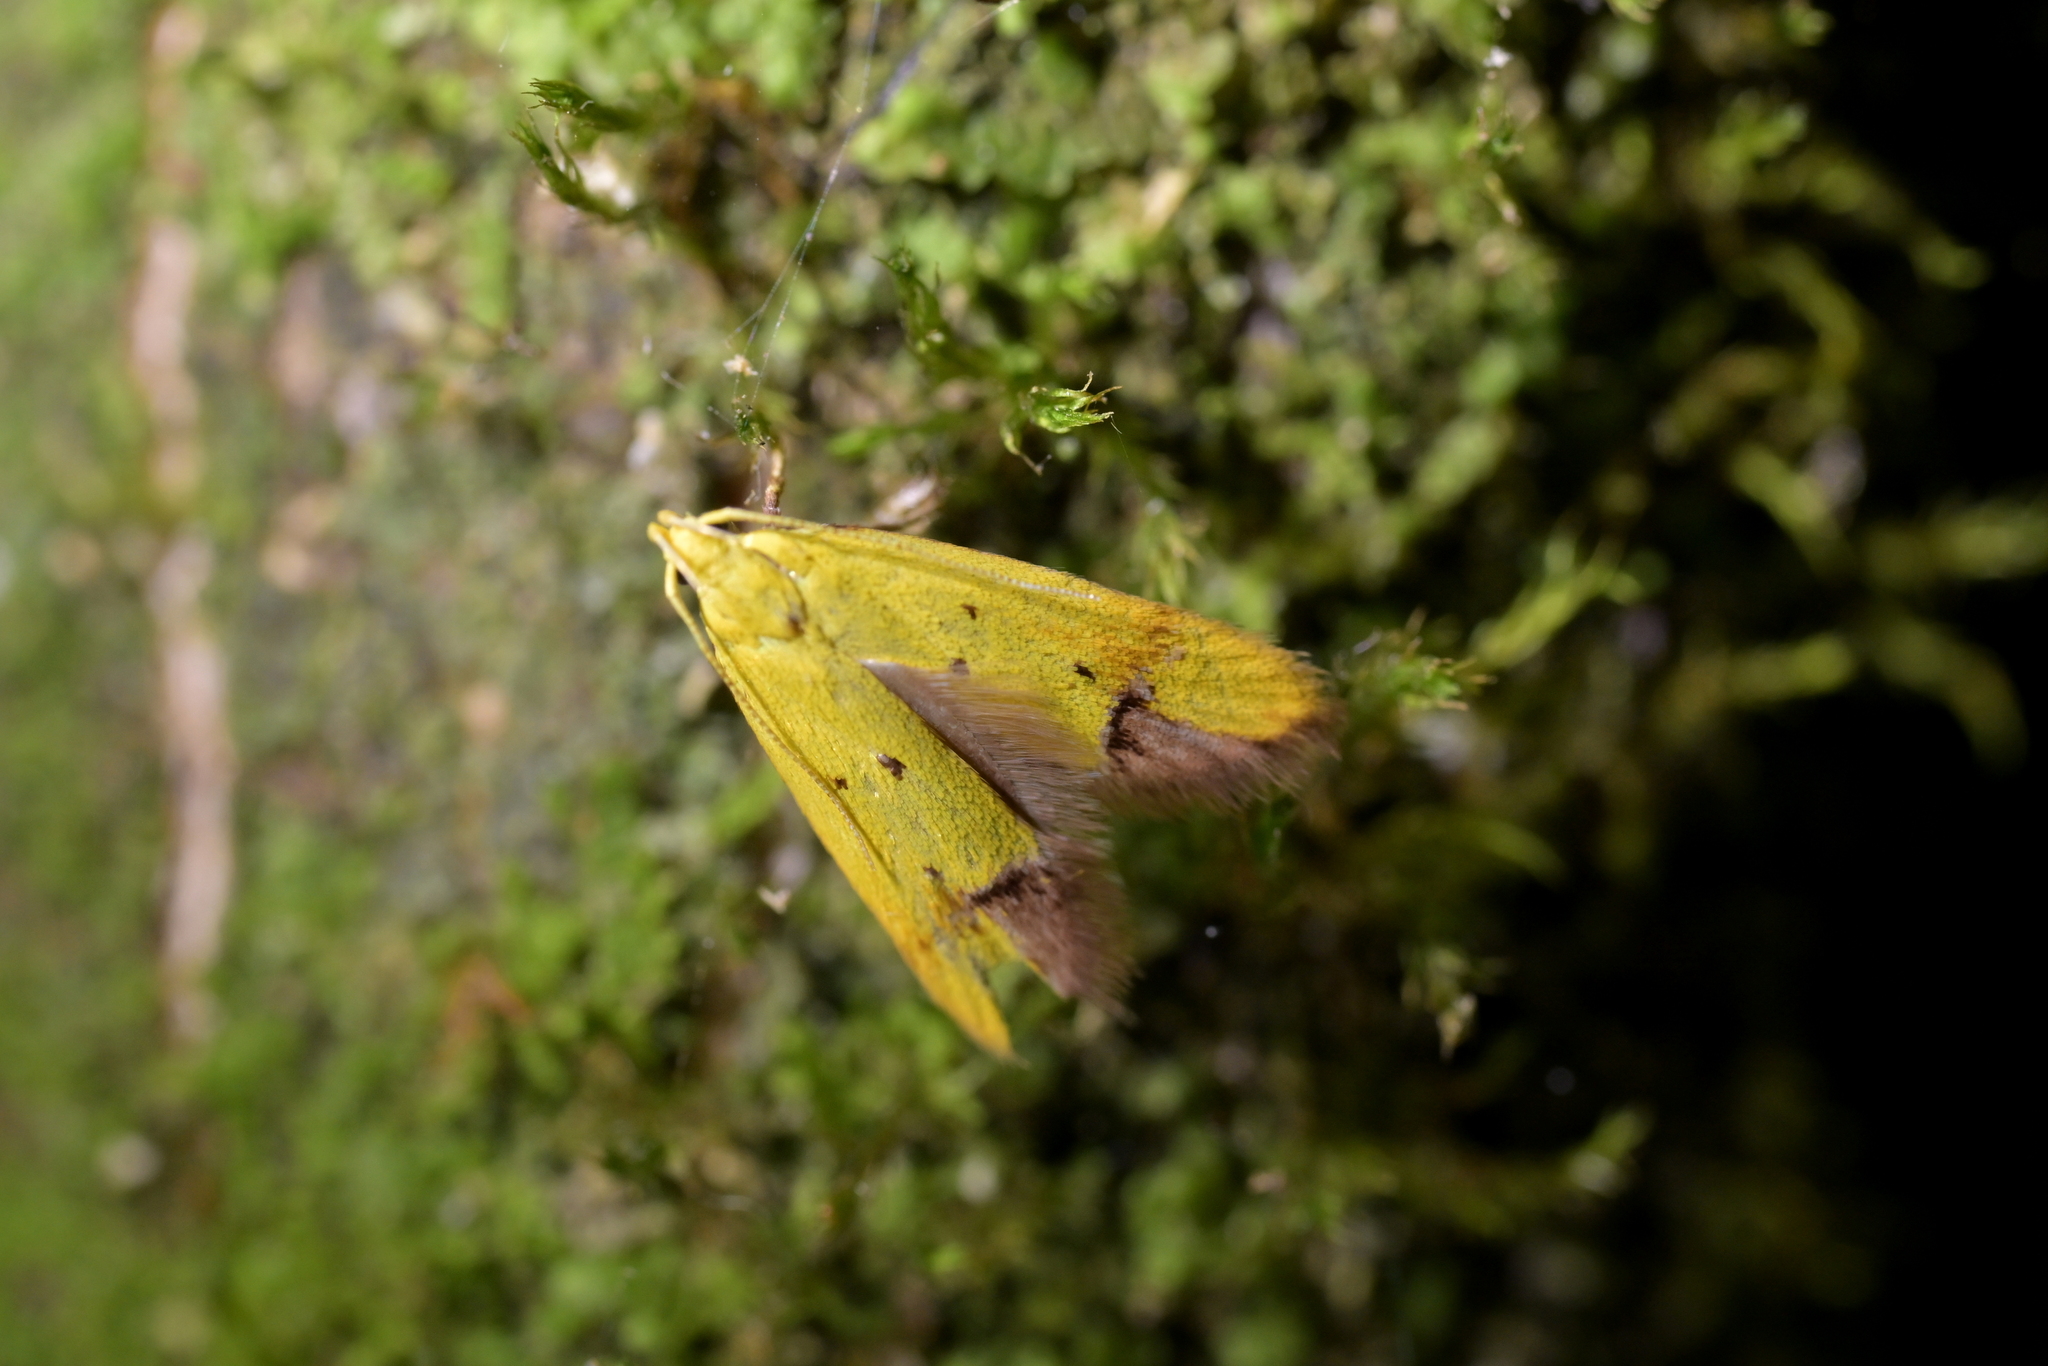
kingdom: Animalia
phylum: Arthropoda
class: Insecta
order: Lepidoptera
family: Oecophoridae
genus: Gymnobathra
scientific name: Gymnobathra flavidella
